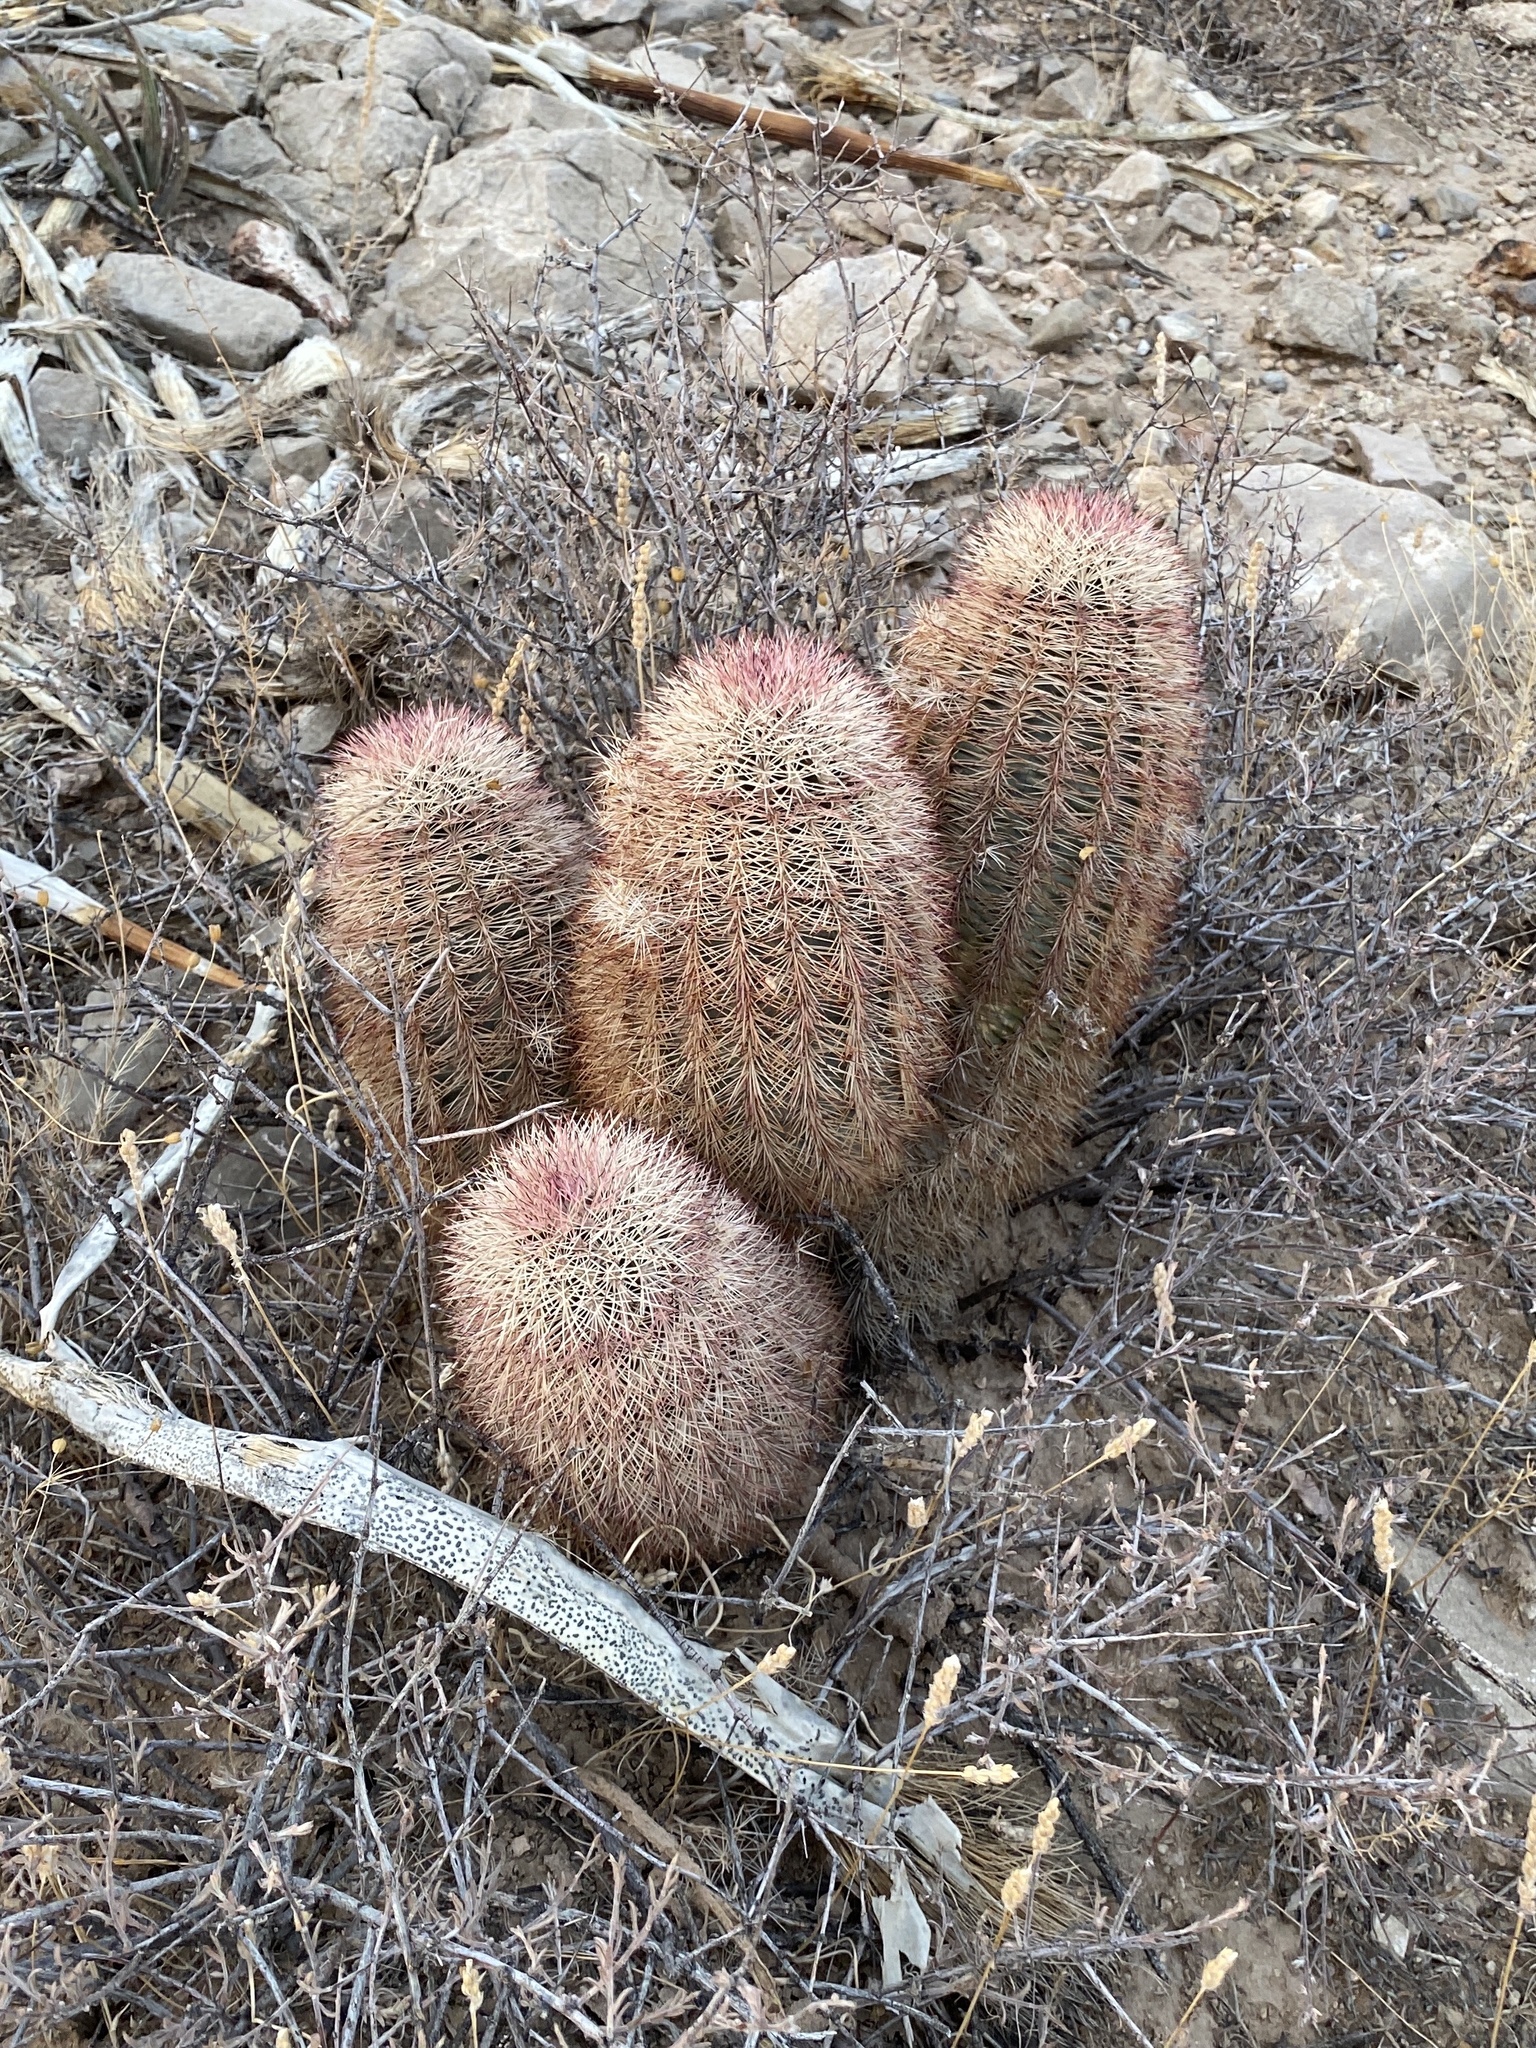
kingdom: Plantae
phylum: Tracheophyta
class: Magnoliopsida
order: Caryophyllales
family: Cactaceae
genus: Echinocereus
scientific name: Echinocereus dasyacanthus
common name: Spiny hedgehog cactus
